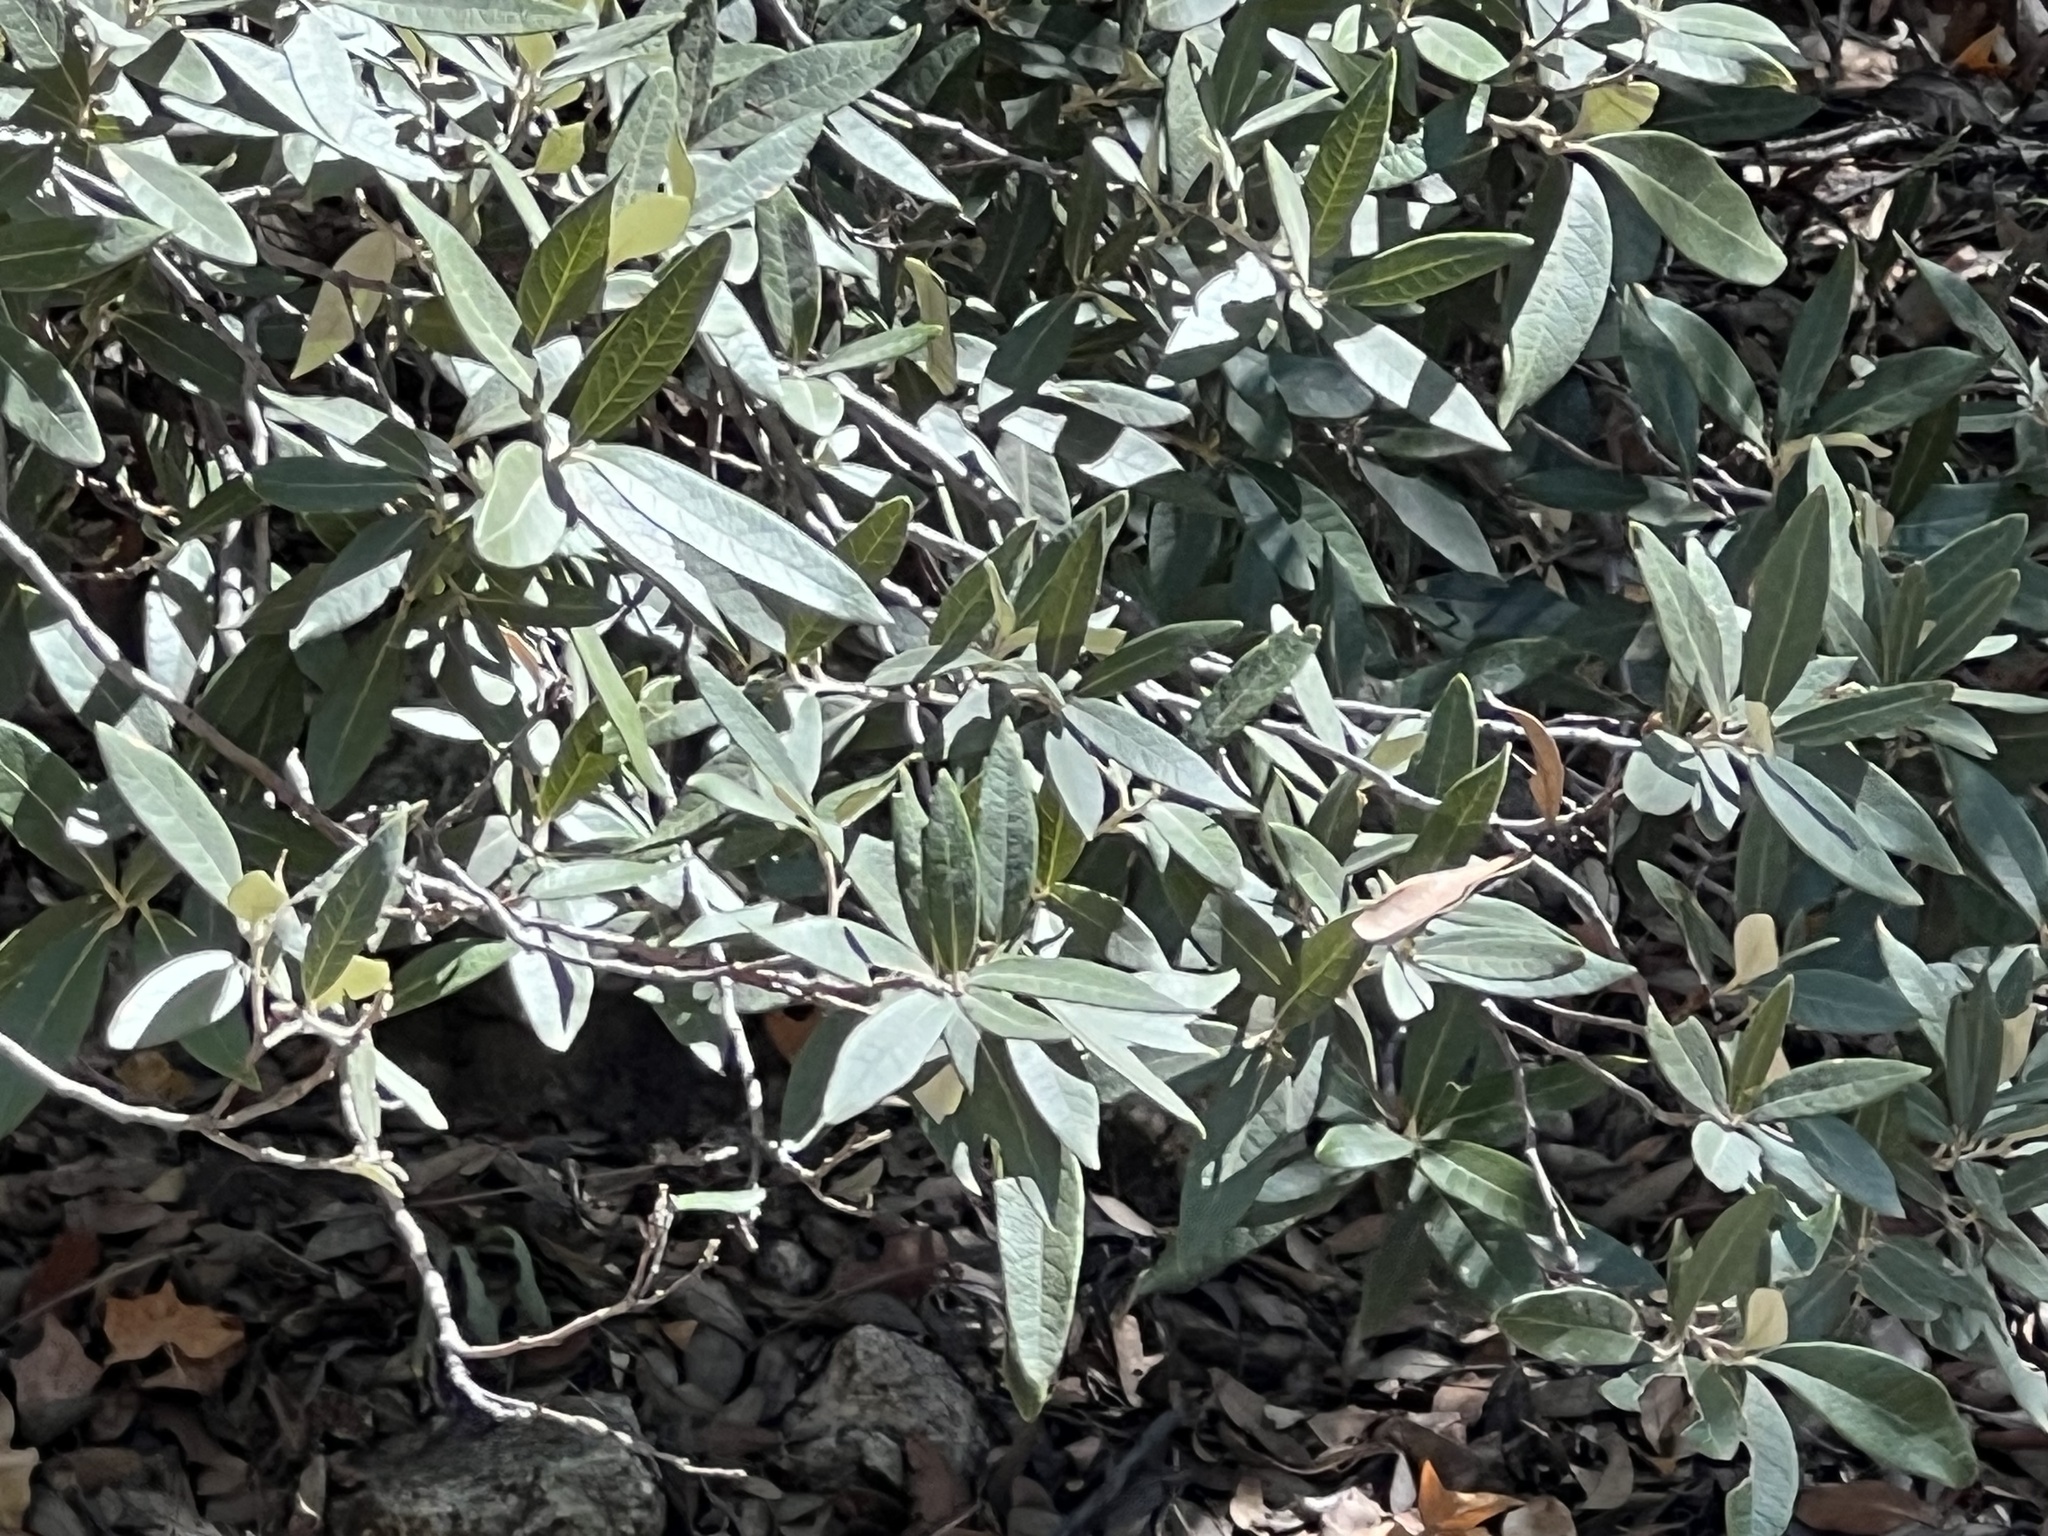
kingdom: Plantae
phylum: Tracheophyta
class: Magnoliopsida
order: Fagales
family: Fagaceae
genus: Quercus
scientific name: Quercus hypoleucoides
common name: Silverleaf oak
